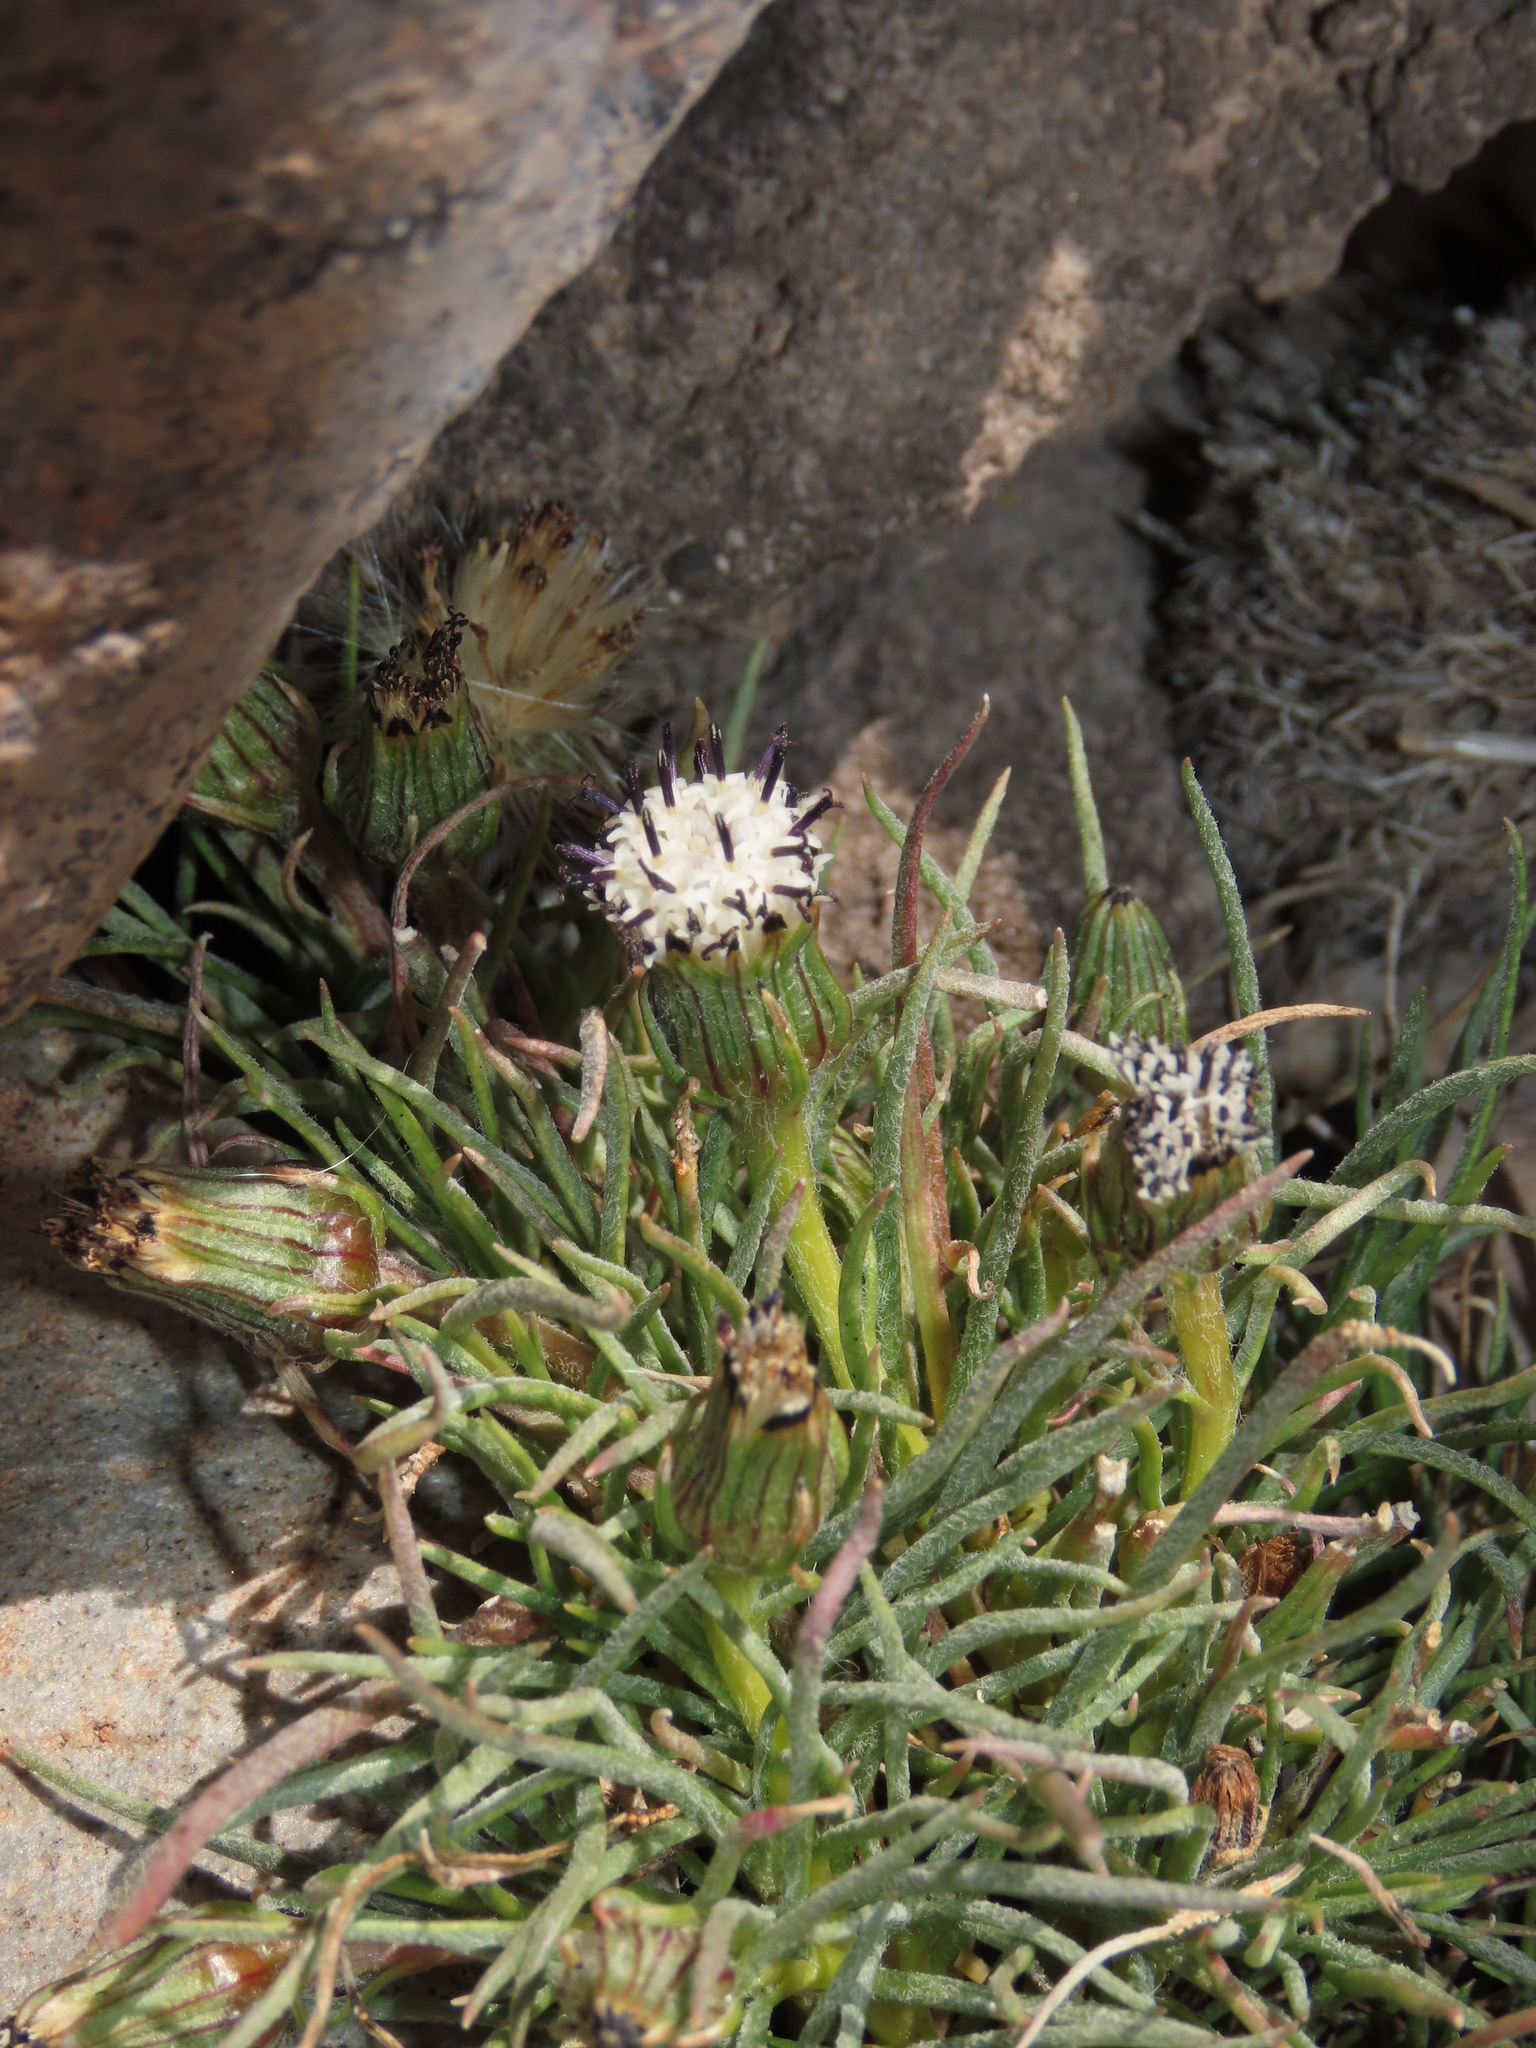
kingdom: Plantae
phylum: Tracheophyta
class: Magnoliopsida
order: Asterales
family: Asteraceae
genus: Senecio
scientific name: Senecio scorzonerifolius
